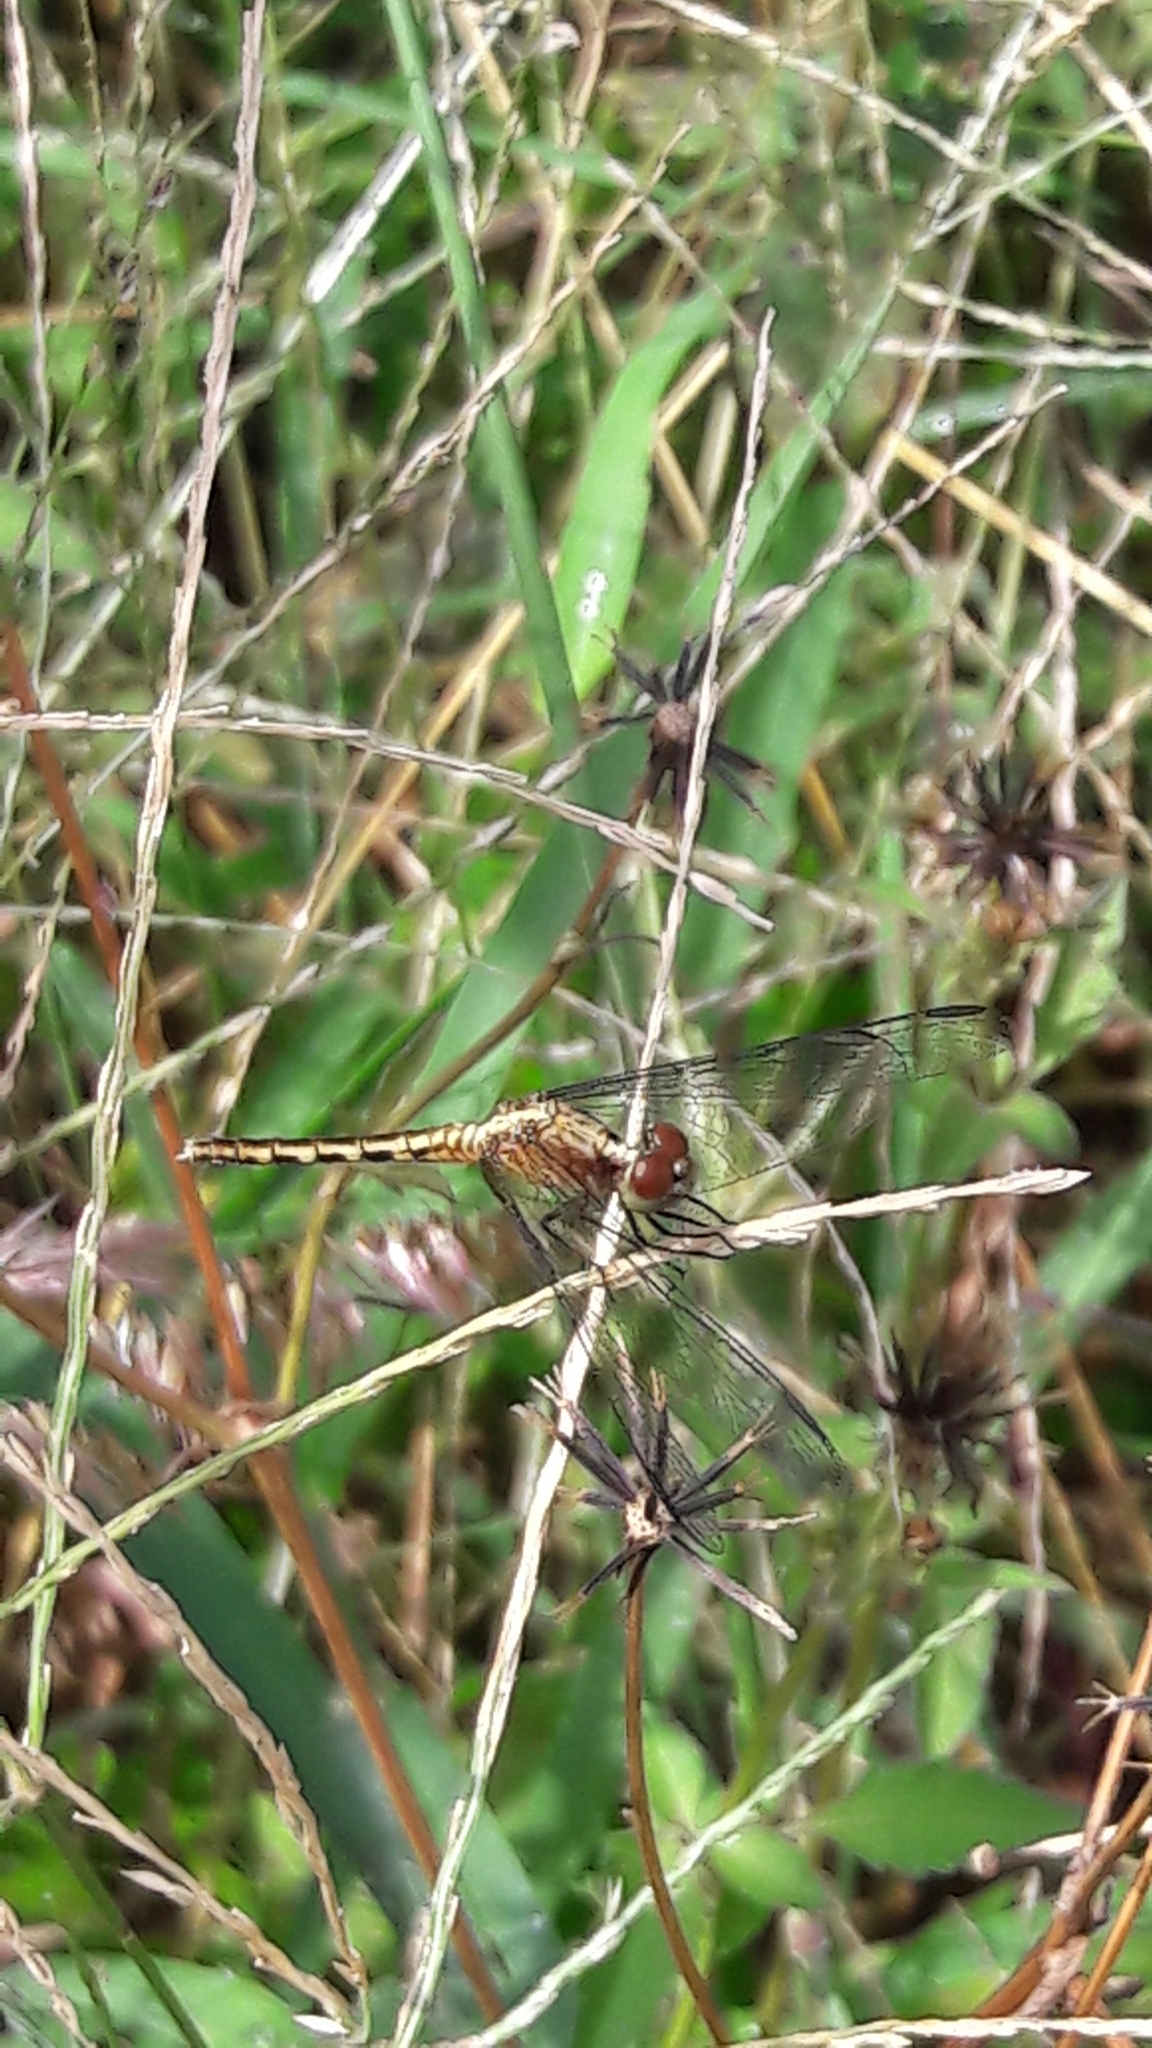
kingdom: Animalia
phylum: Arthropoda
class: Insecta
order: Odonata
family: Libellulidae
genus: Erythrodiplax
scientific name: Erythrodiplax avittata
